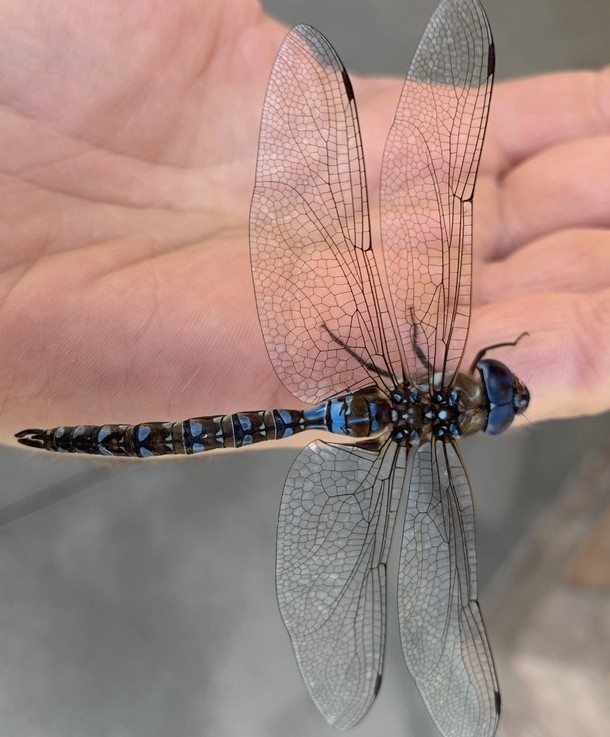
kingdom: Animalia
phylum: Arthropoda
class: Insecta
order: Odonata
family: Aeshnidae
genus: Rhionaeschna
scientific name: Rhionaeschna multicolor
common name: Blue-eyed darner
